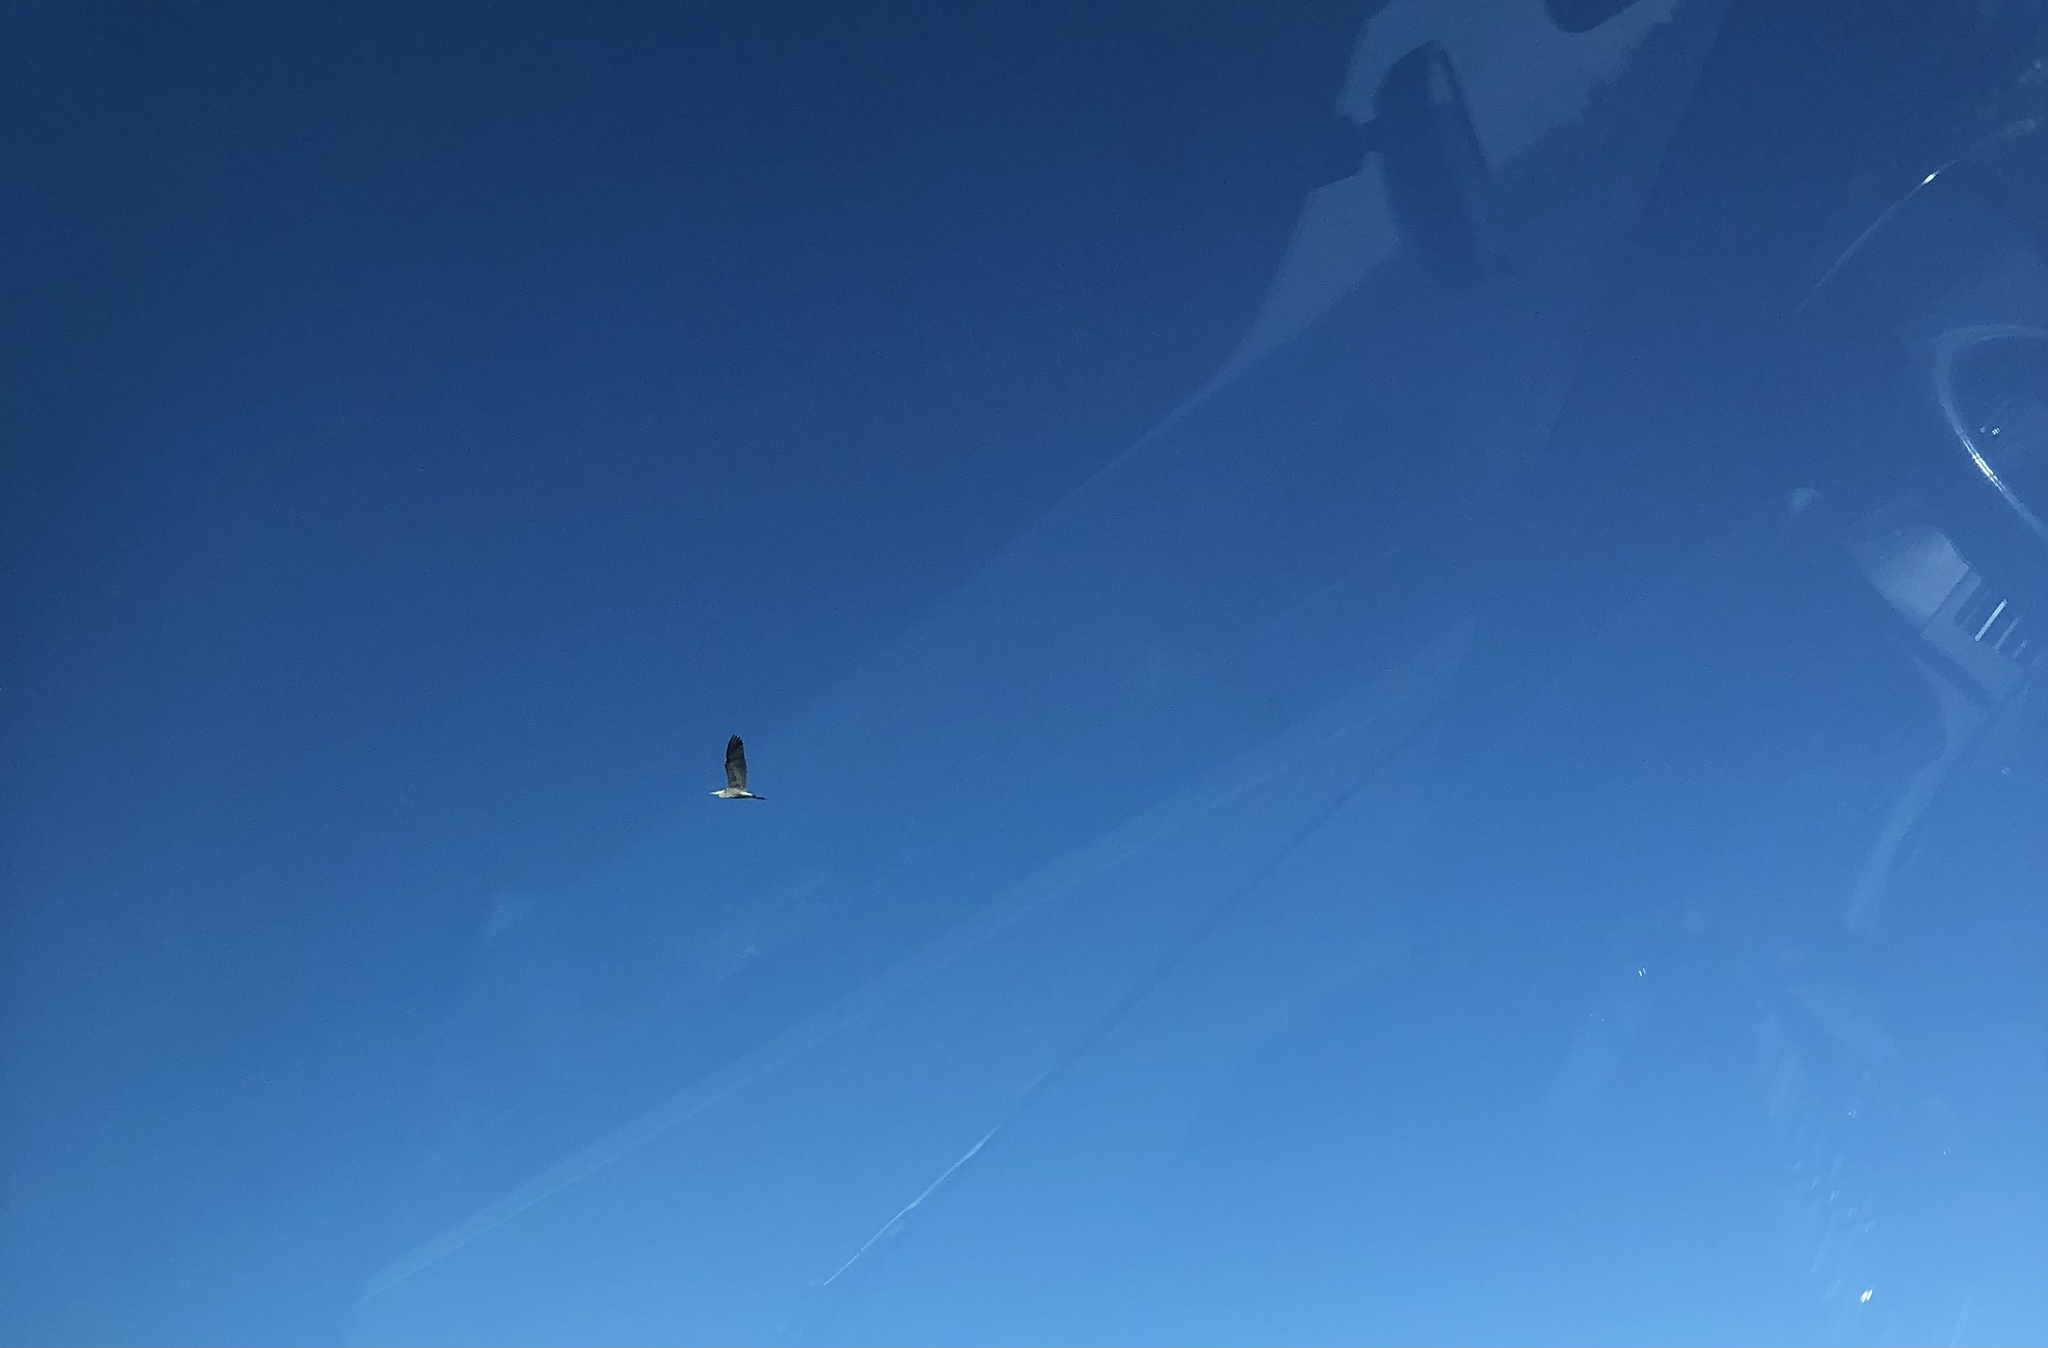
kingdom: Animalia
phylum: Chordata
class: Aves
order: Pelecaniformes
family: Ardeidae
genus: Ardea
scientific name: Ardea herodias
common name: Great blue heron
